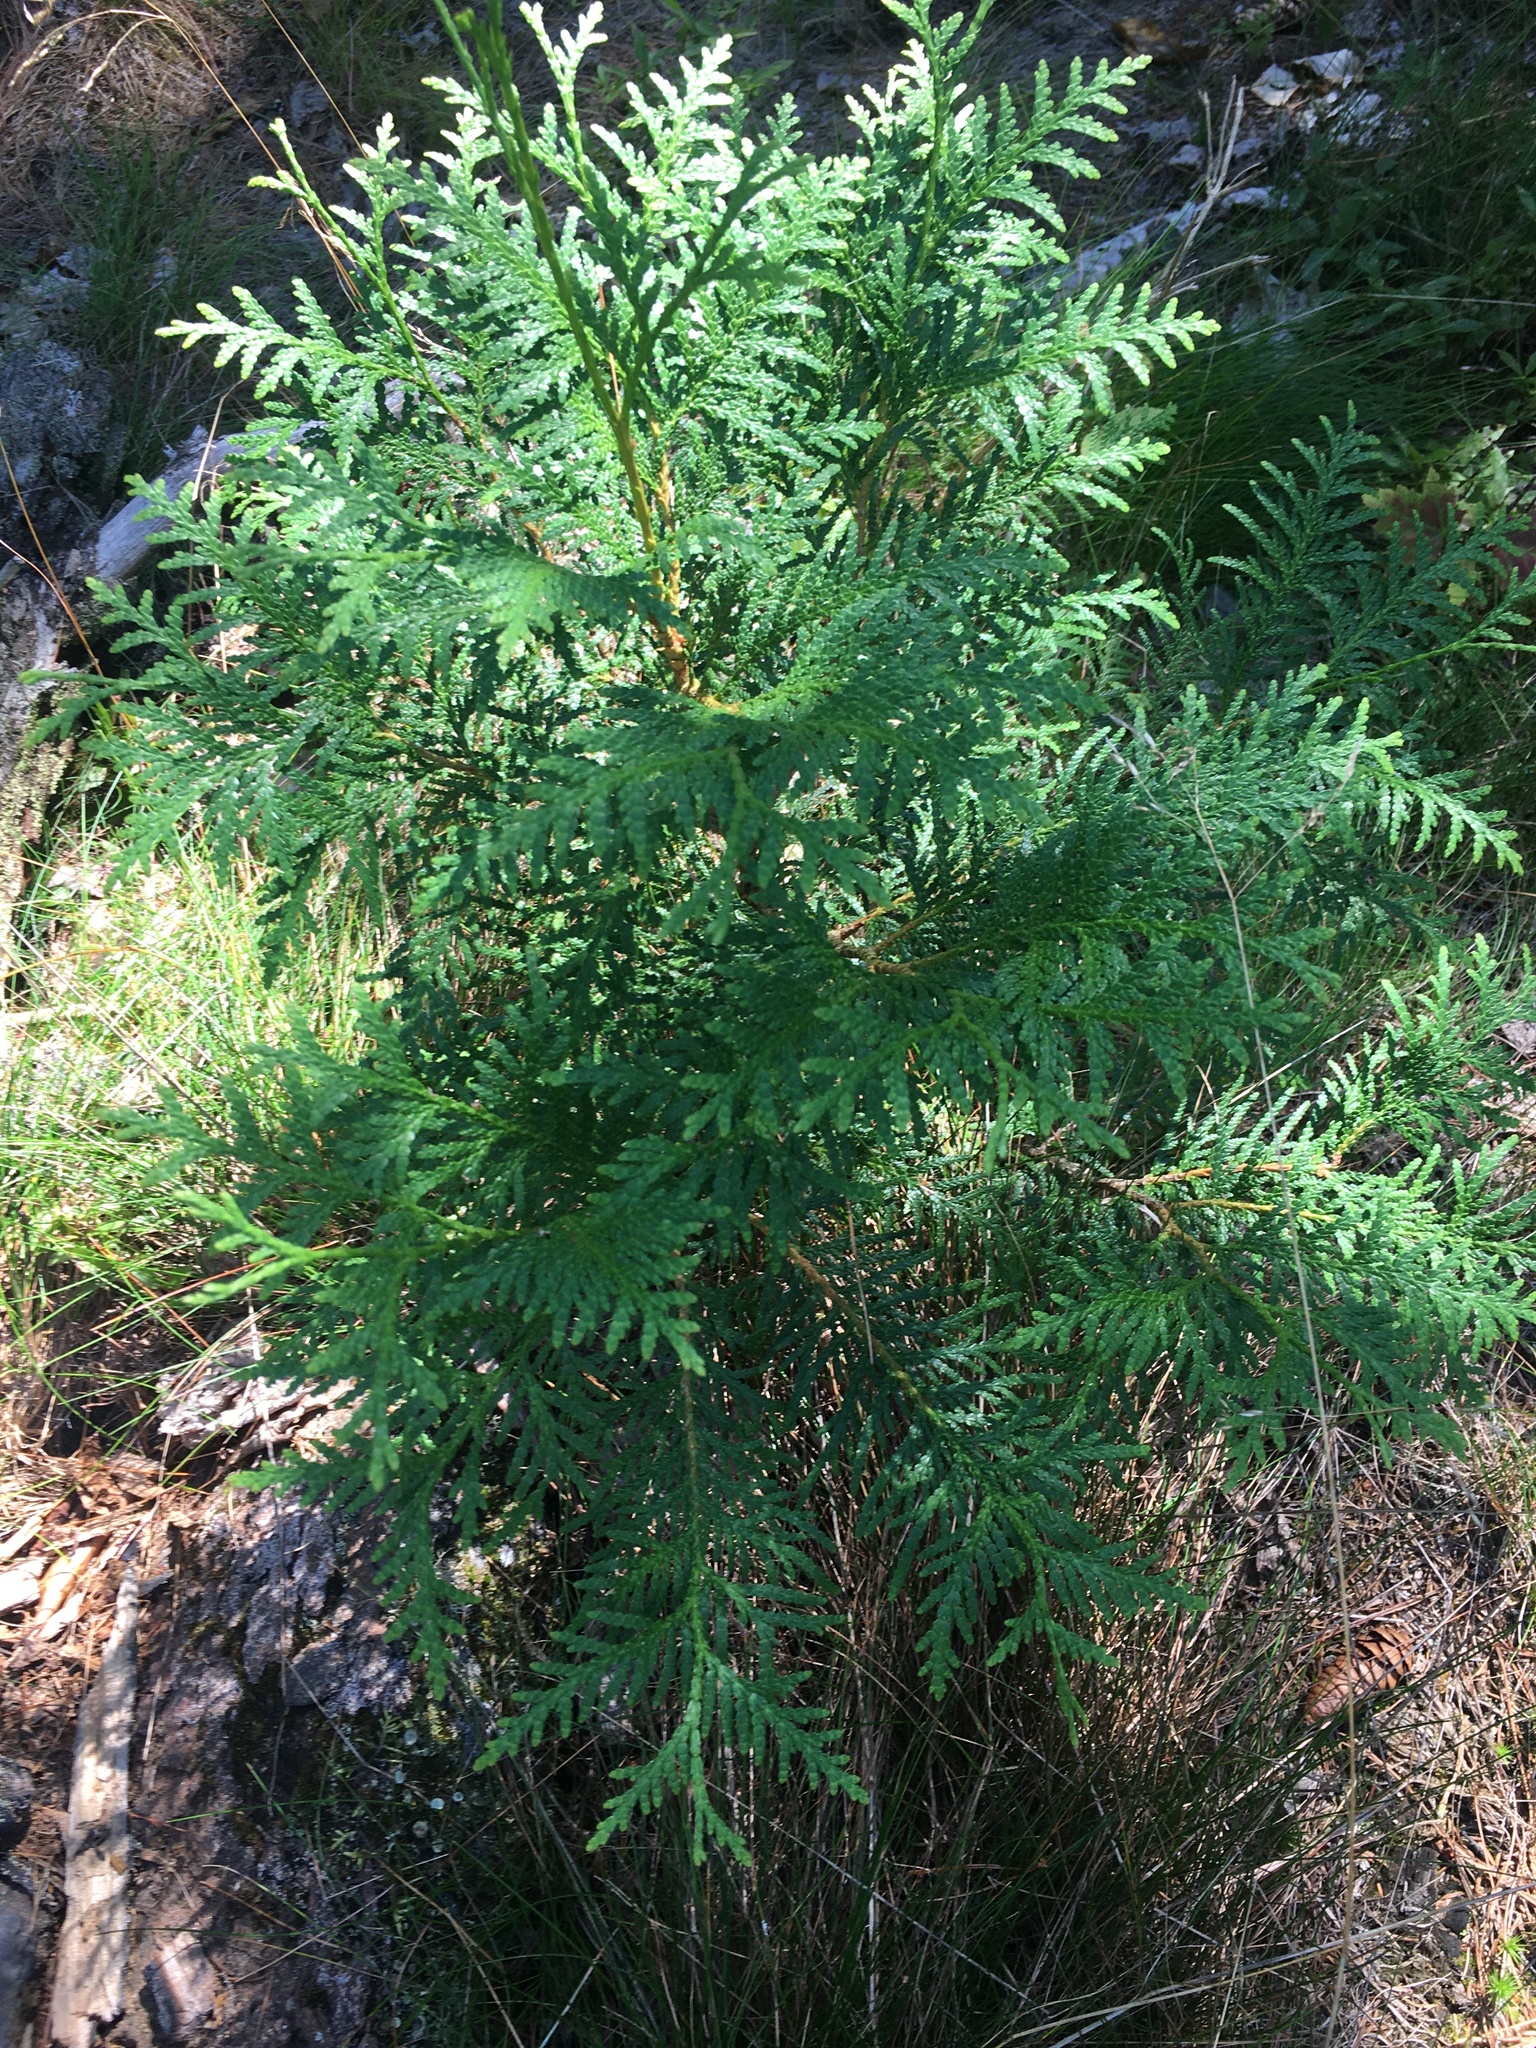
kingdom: Plantae
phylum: Tracheophyta
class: Pinopsida
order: Pinales
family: Cupressaceae
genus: Thuja
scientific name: Thuja occidentalis
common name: Northern white-cedar
